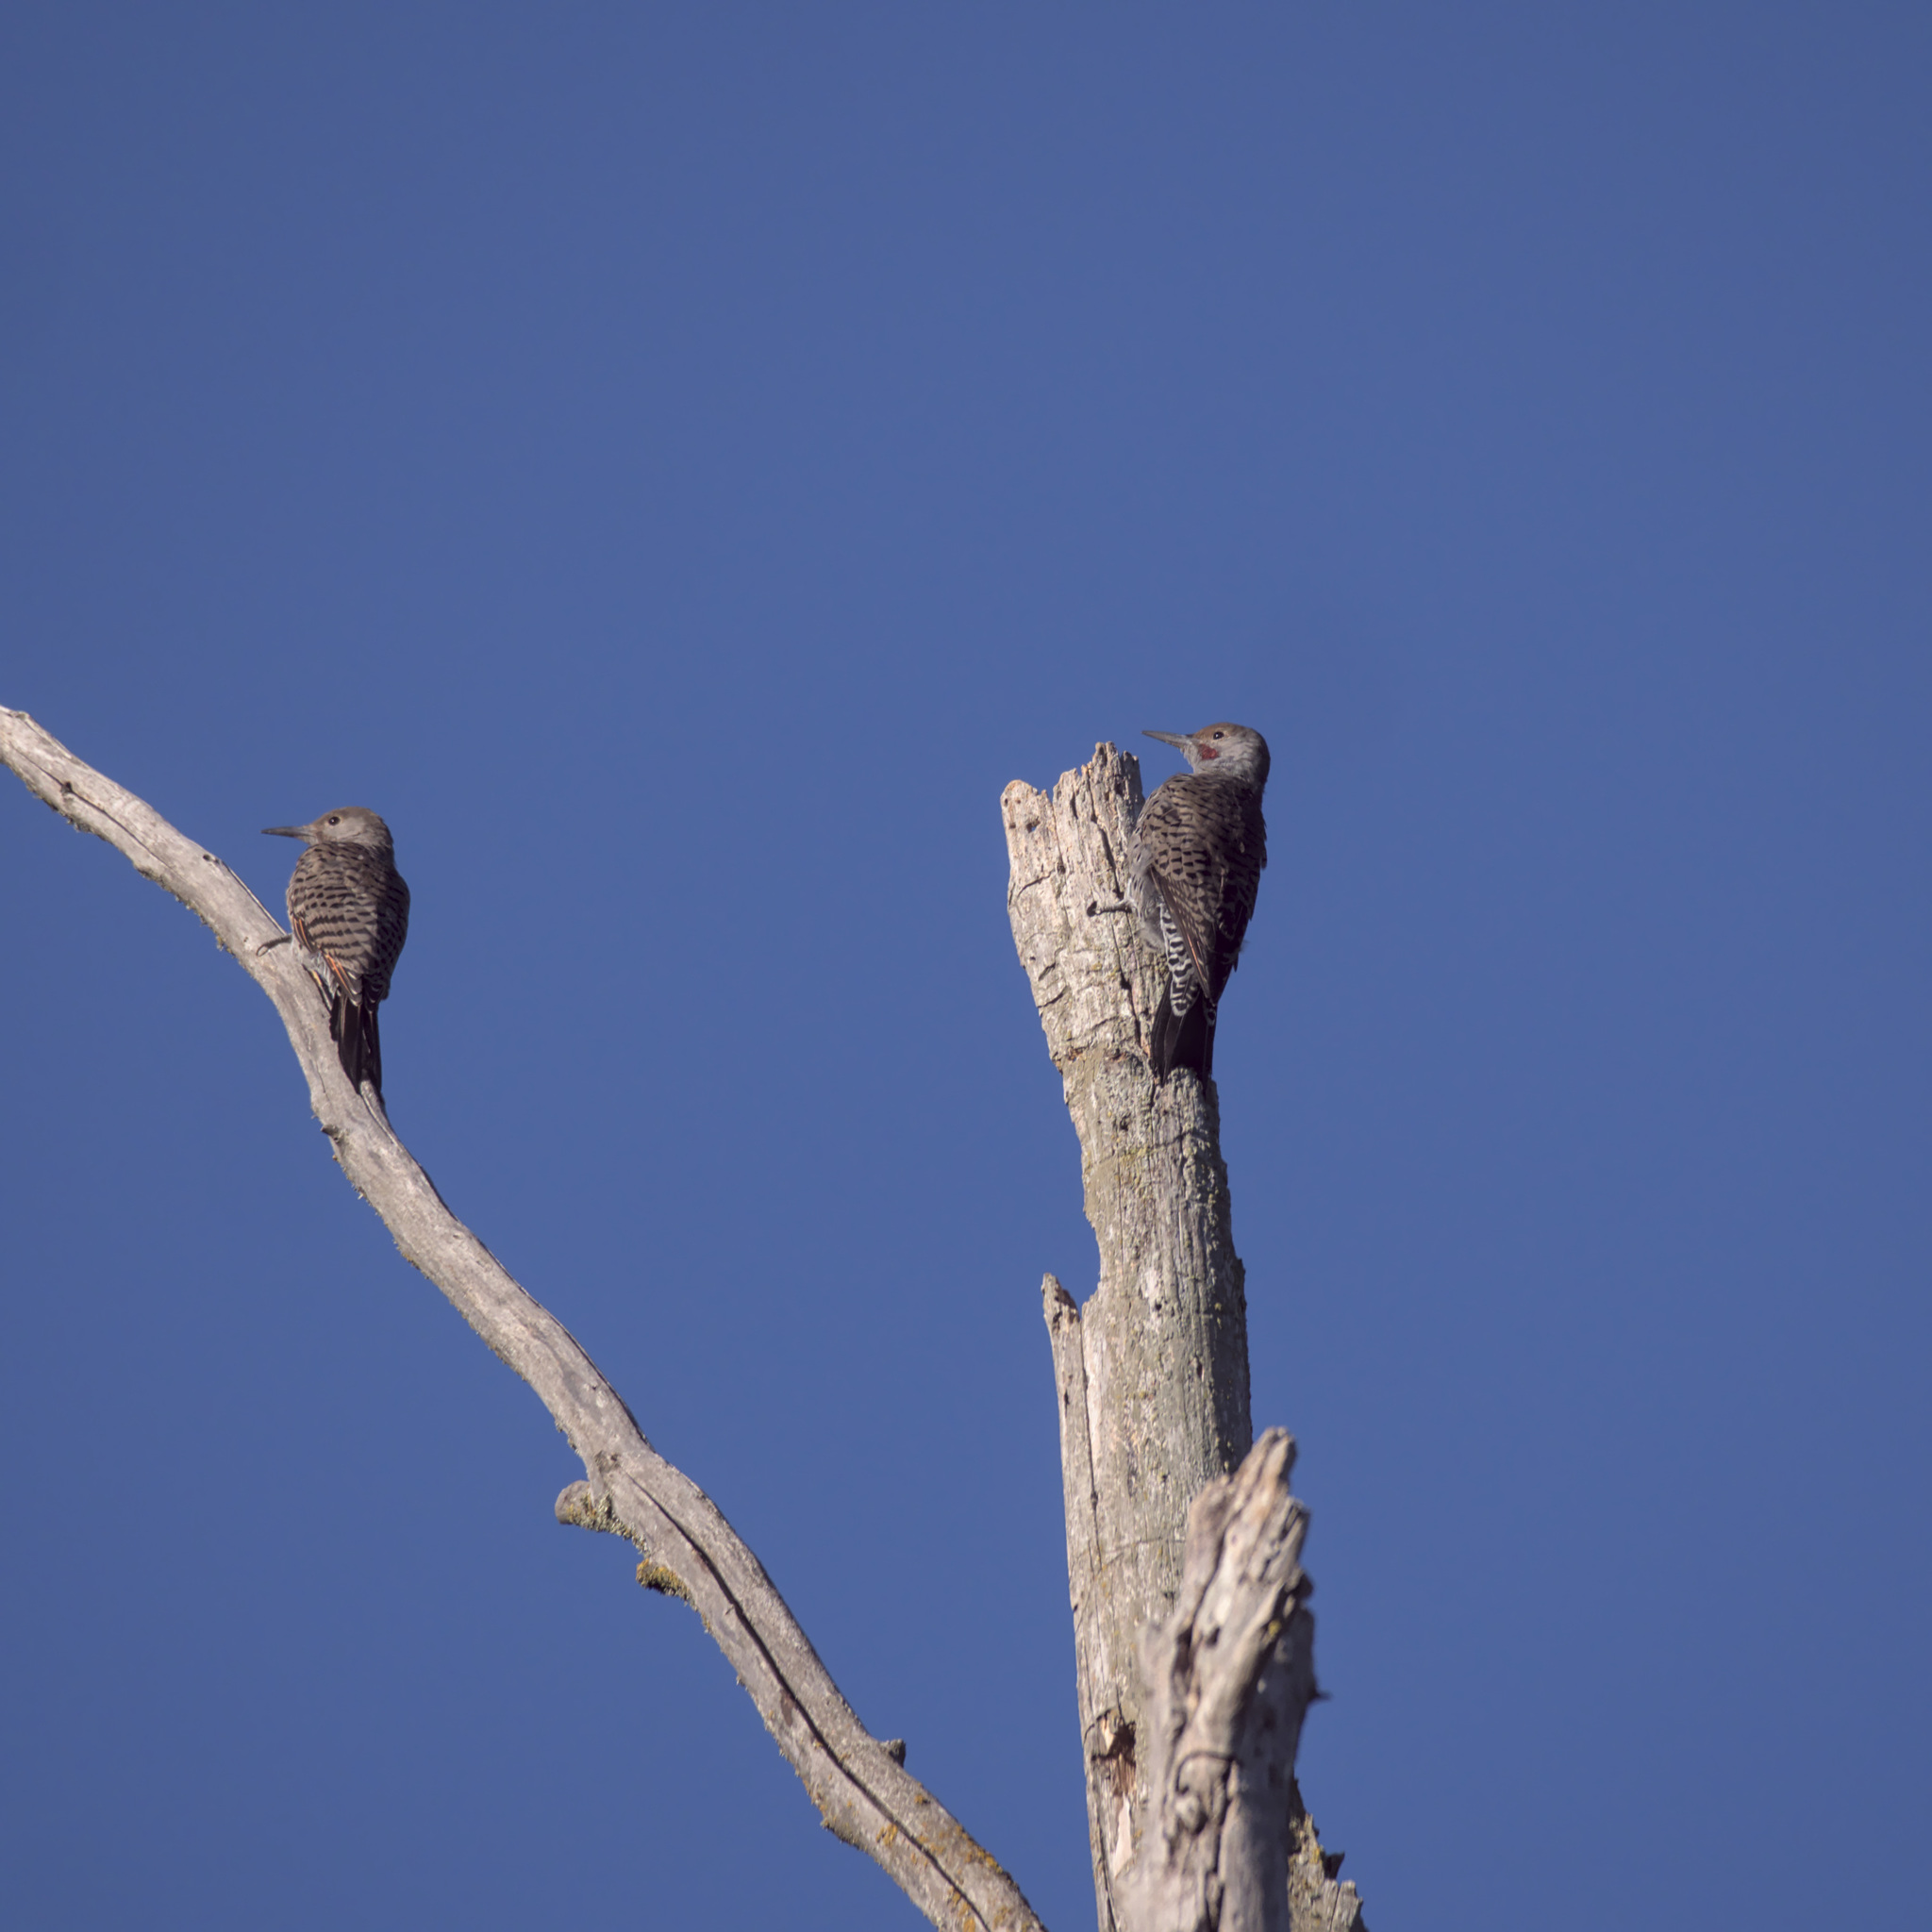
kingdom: Animalia
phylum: Chordata
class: Aves
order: Piciformes
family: Picidae
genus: Colaptes
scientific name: Colaptes auratus
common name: Northern flicker
